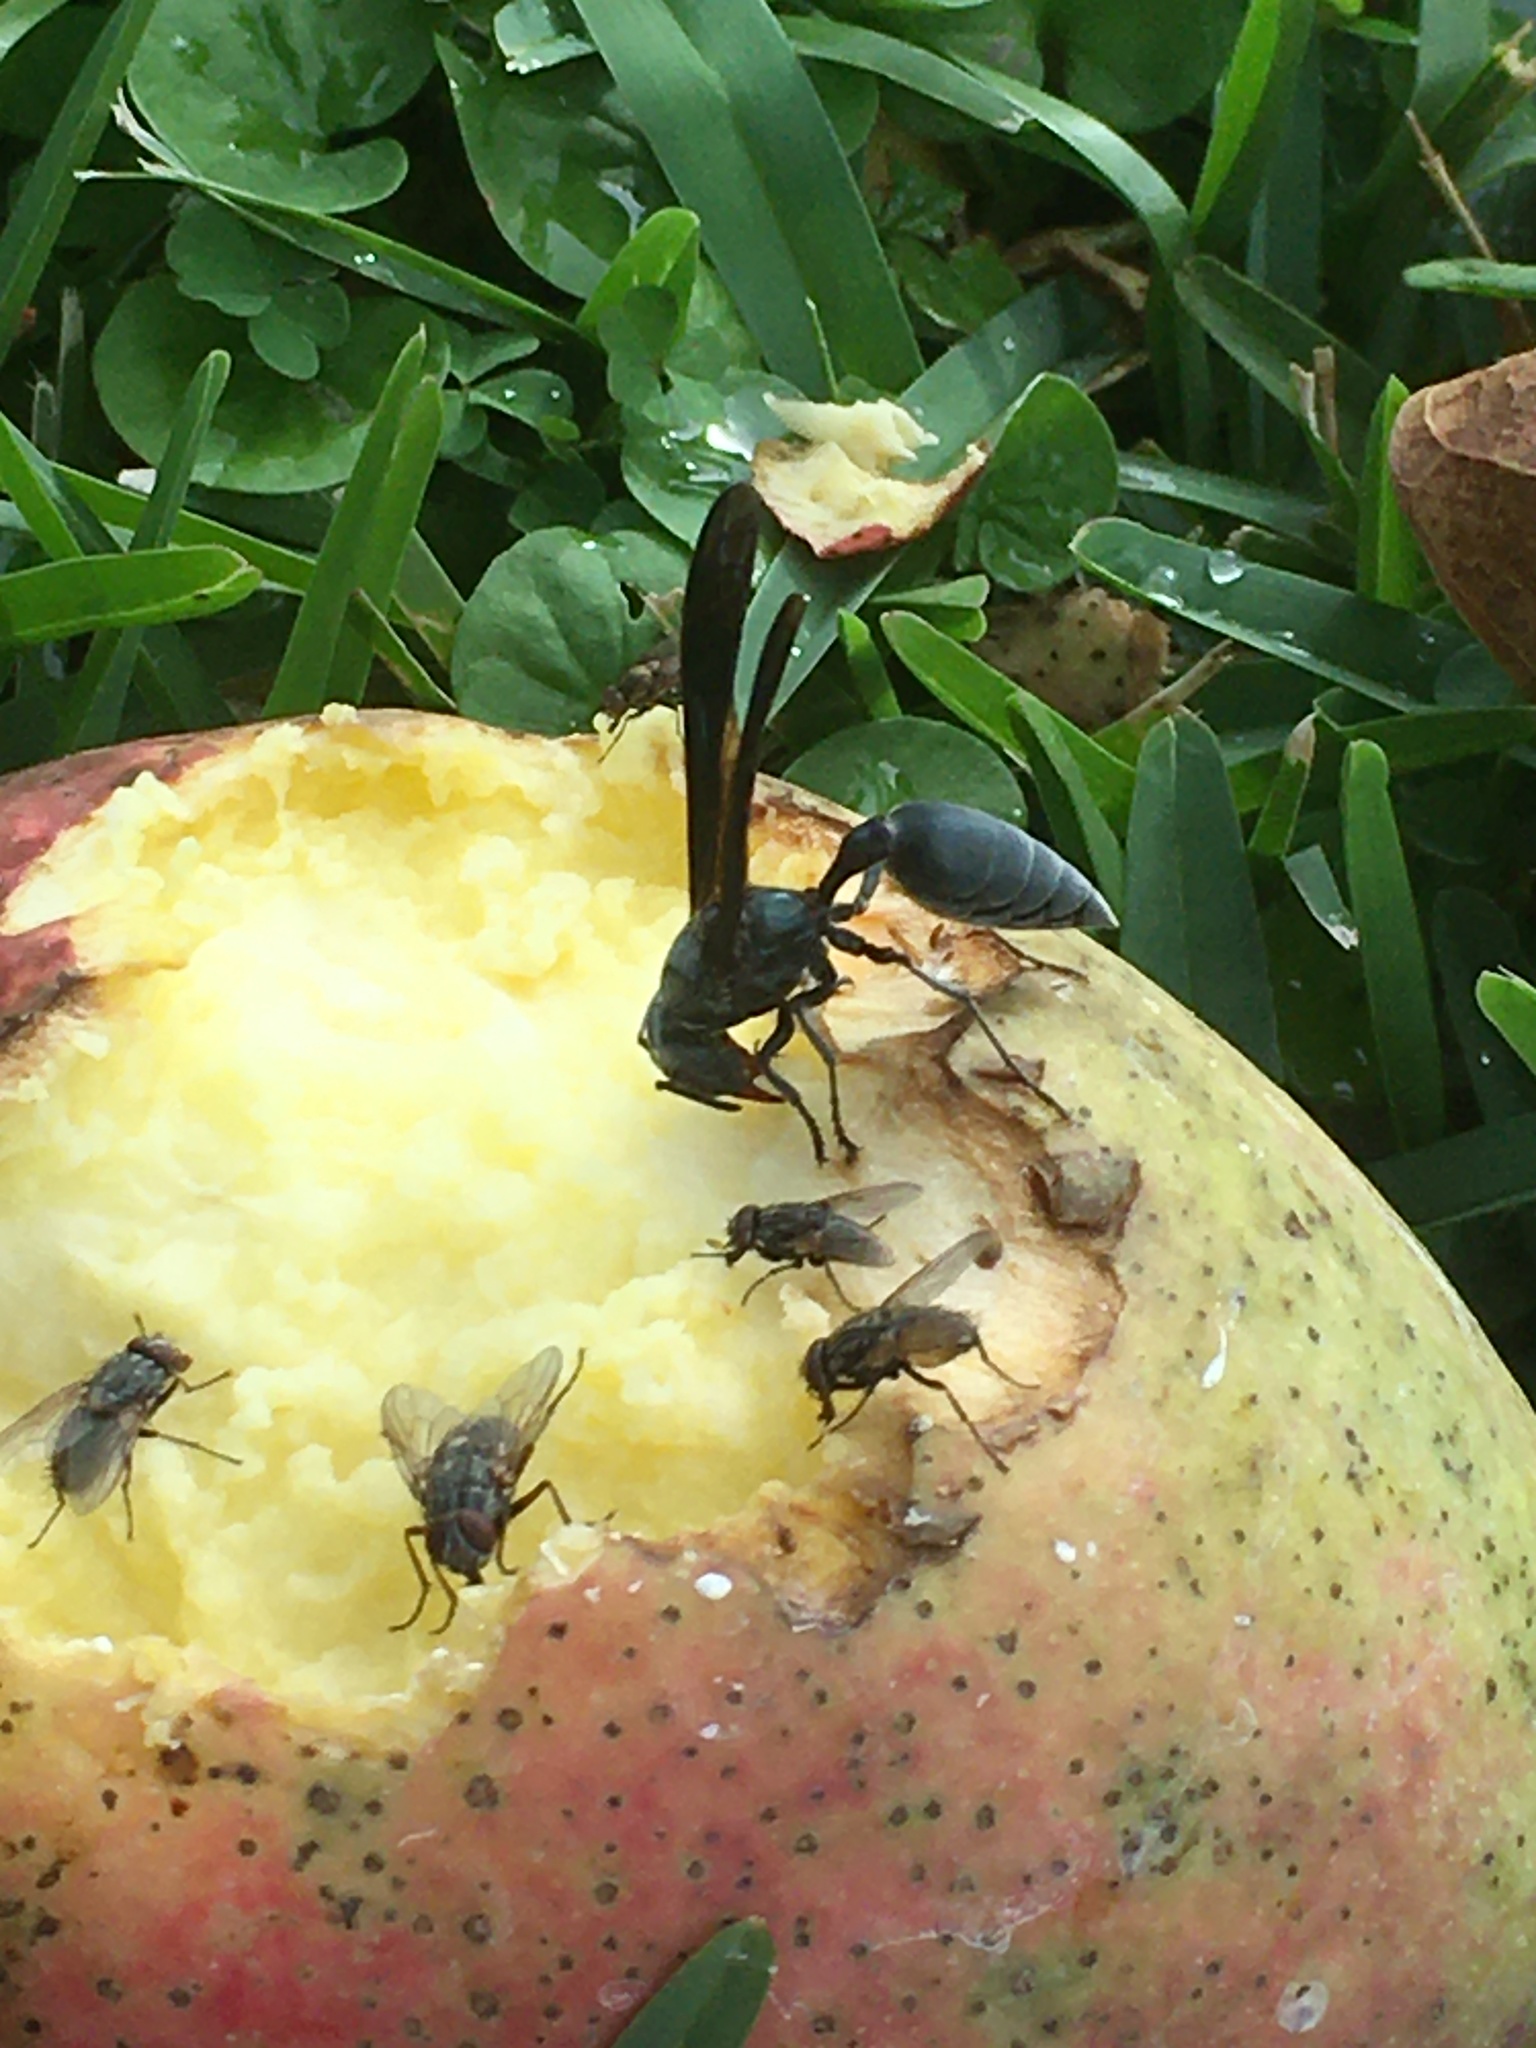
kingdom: Animalia
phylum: Arthropoda
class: Insecta
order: Hymenoptera
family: Vespidae
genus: Synoeca
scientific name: Synoeca septentrionalis
